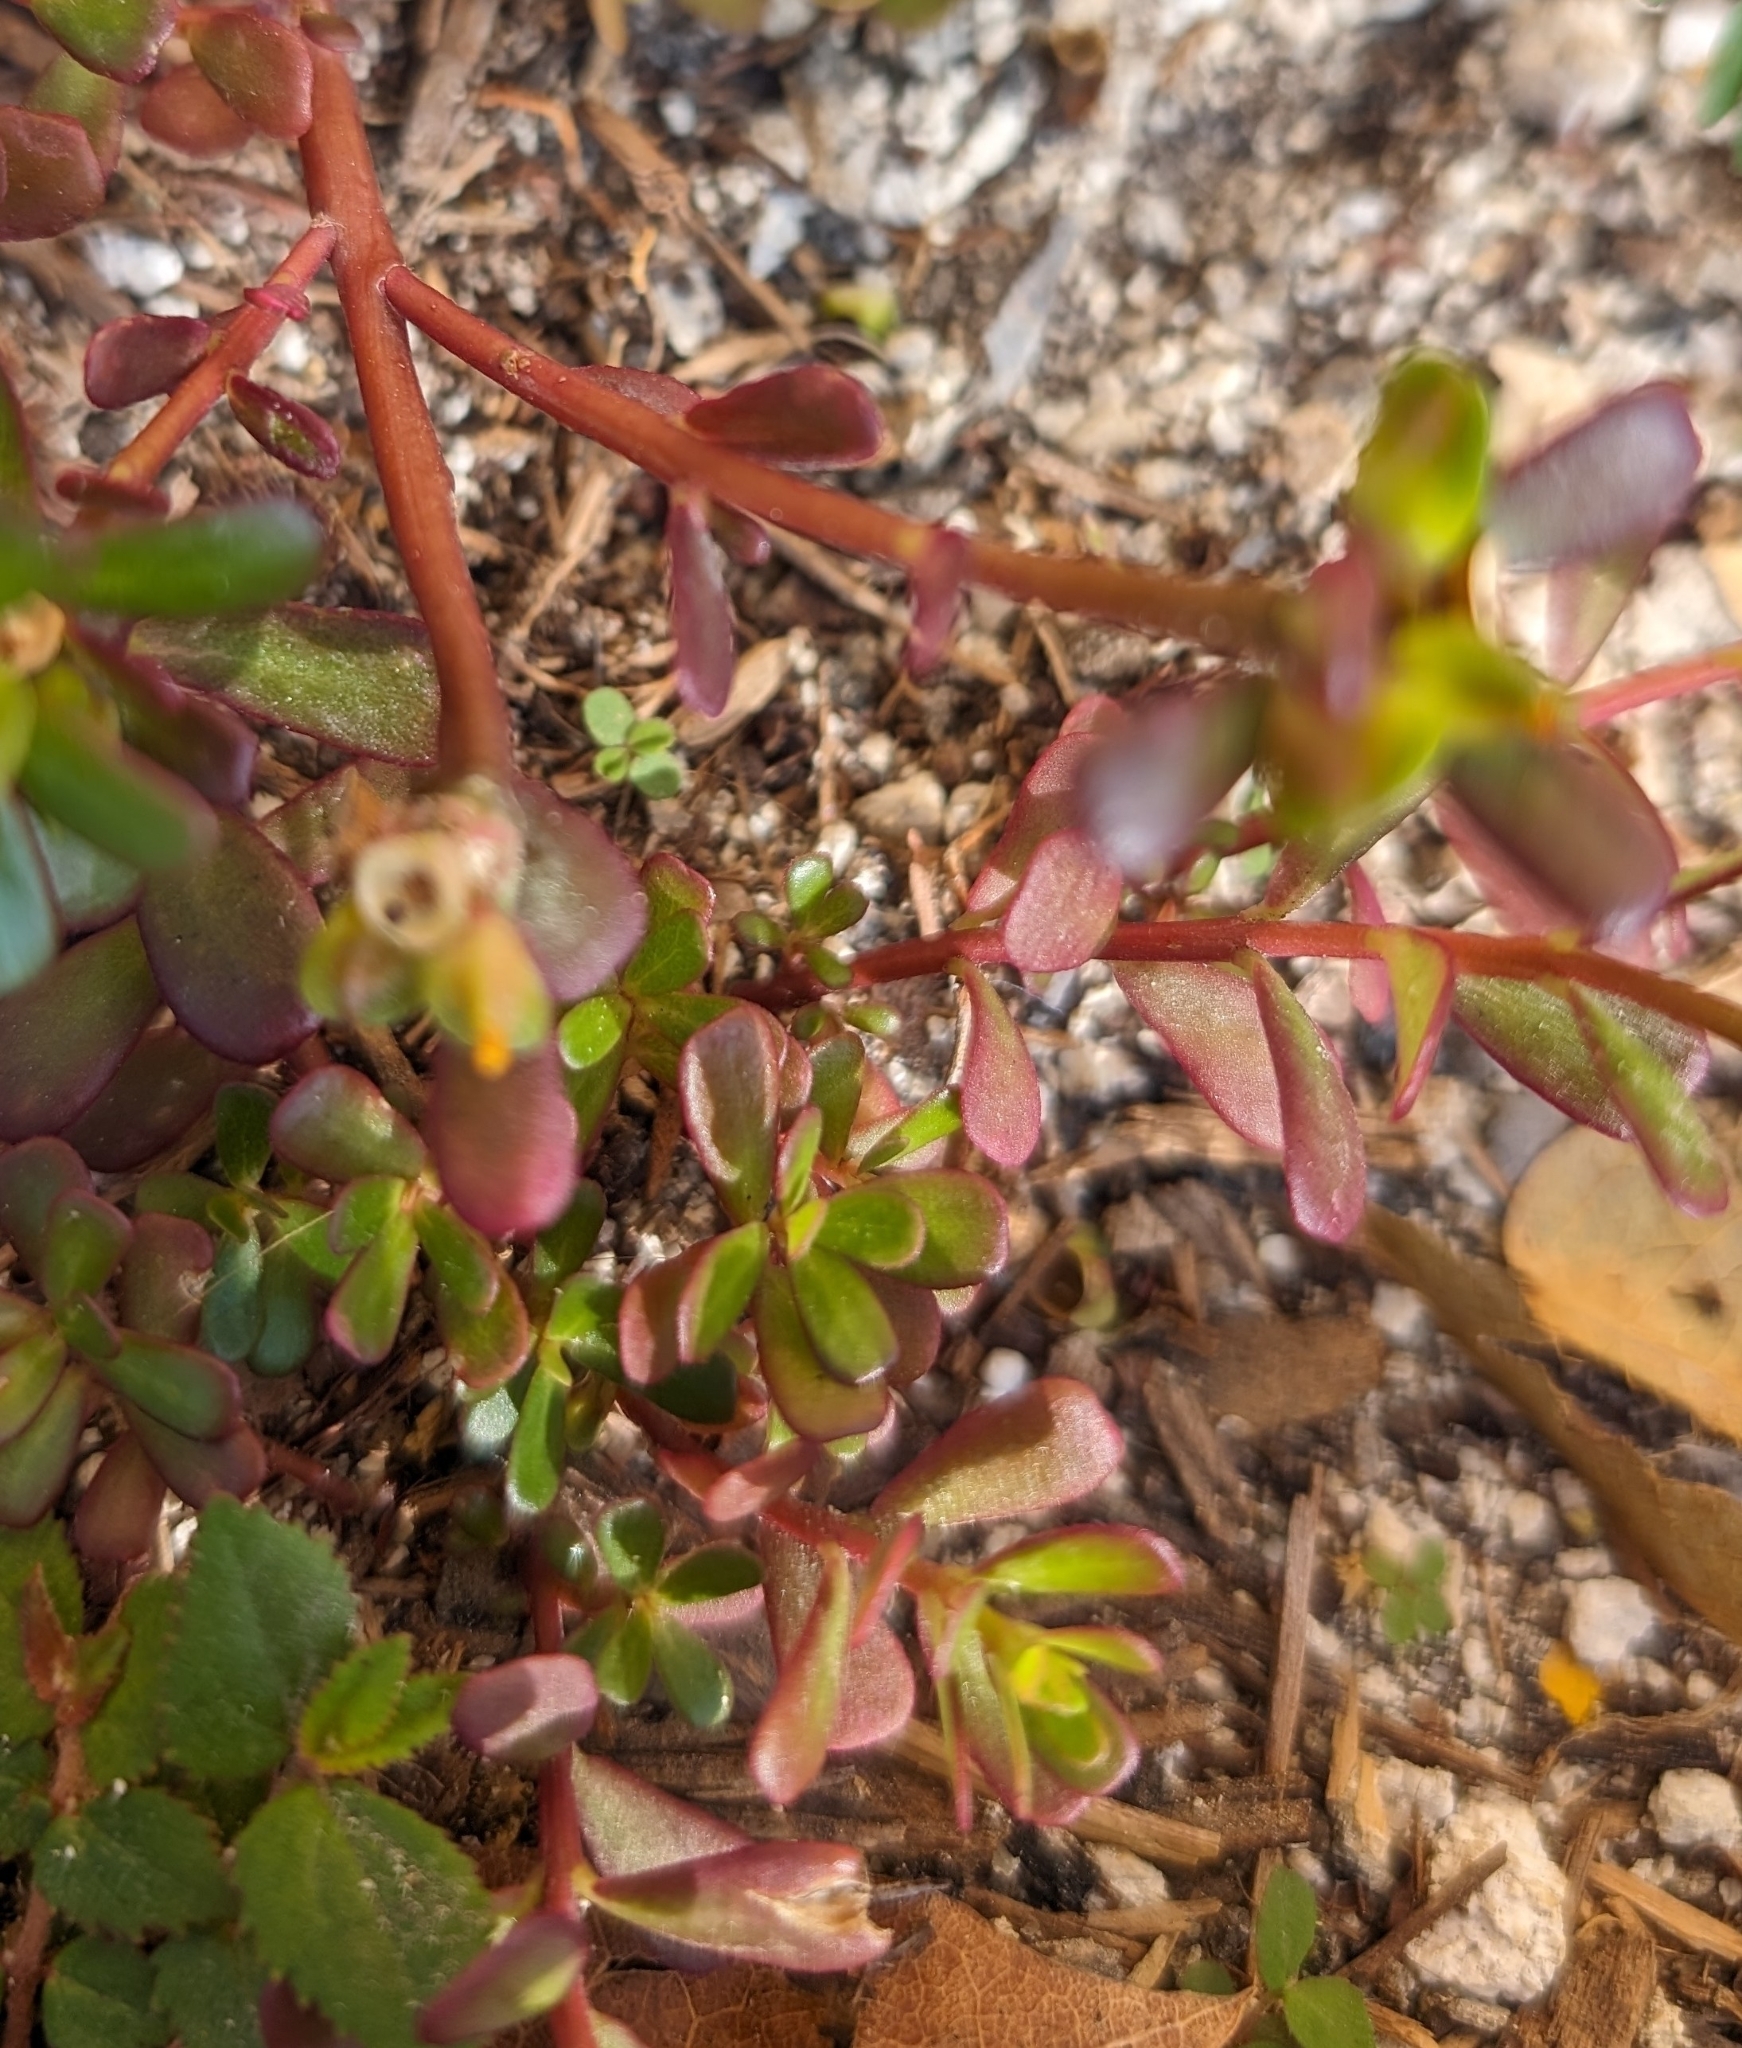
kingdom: Plantae
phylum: Tracheophyta
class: Magnoliopsida
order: Caryophyllales
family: Portulacaceae
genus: Portulaca
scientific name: Portulaca oleracea
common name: Common purslane
